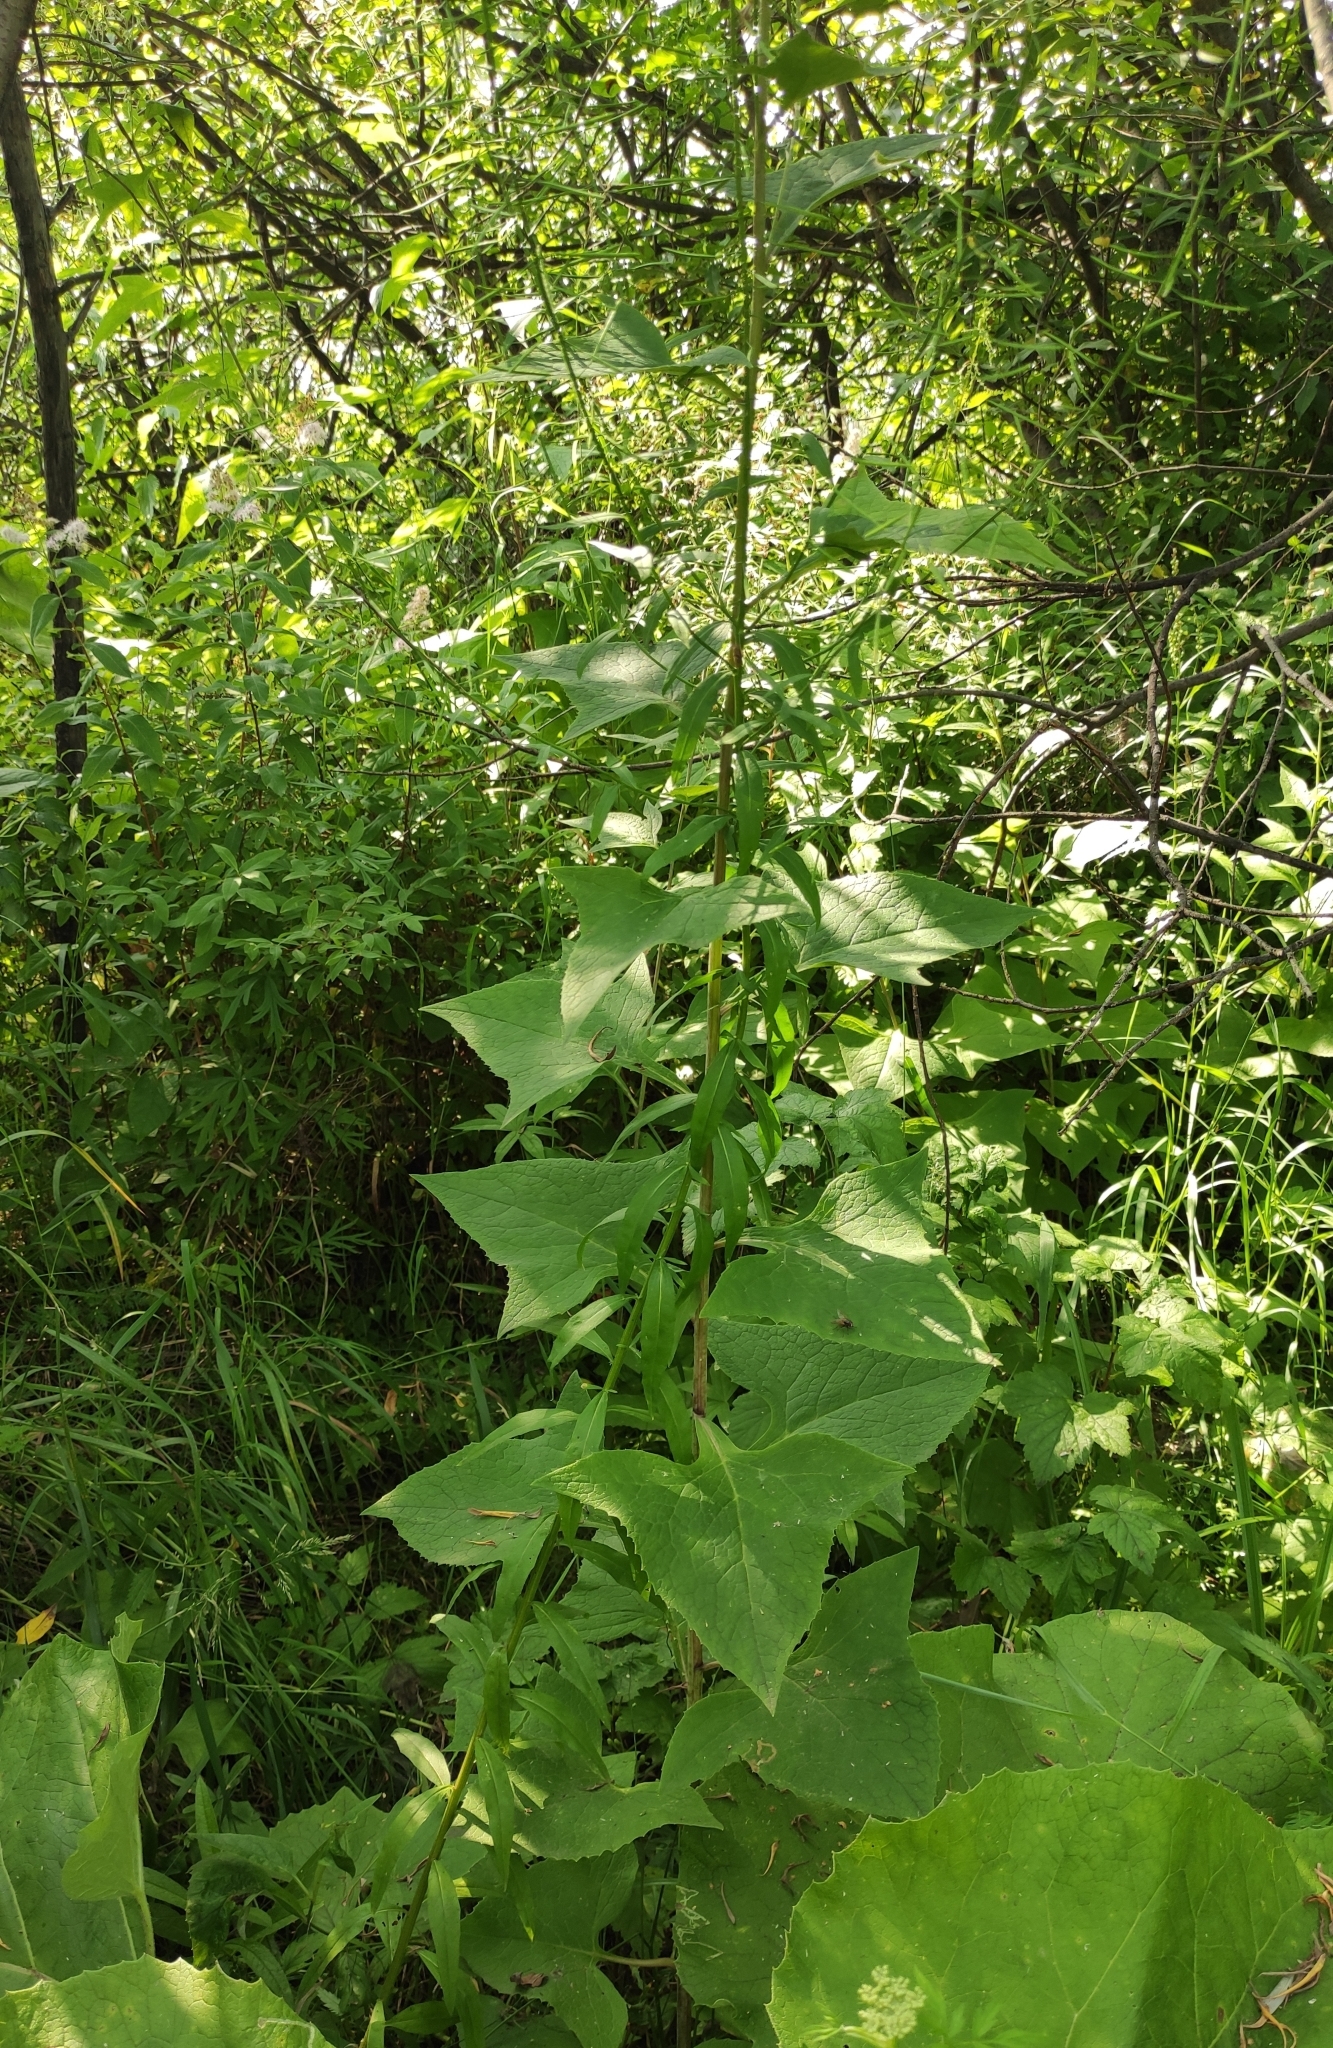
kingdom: Plantae
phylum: Tracheophyta
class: Magnoliopsida
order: Asterales
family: Asteraceae
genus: Parasenecio
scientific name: Parasenecio hastatus
